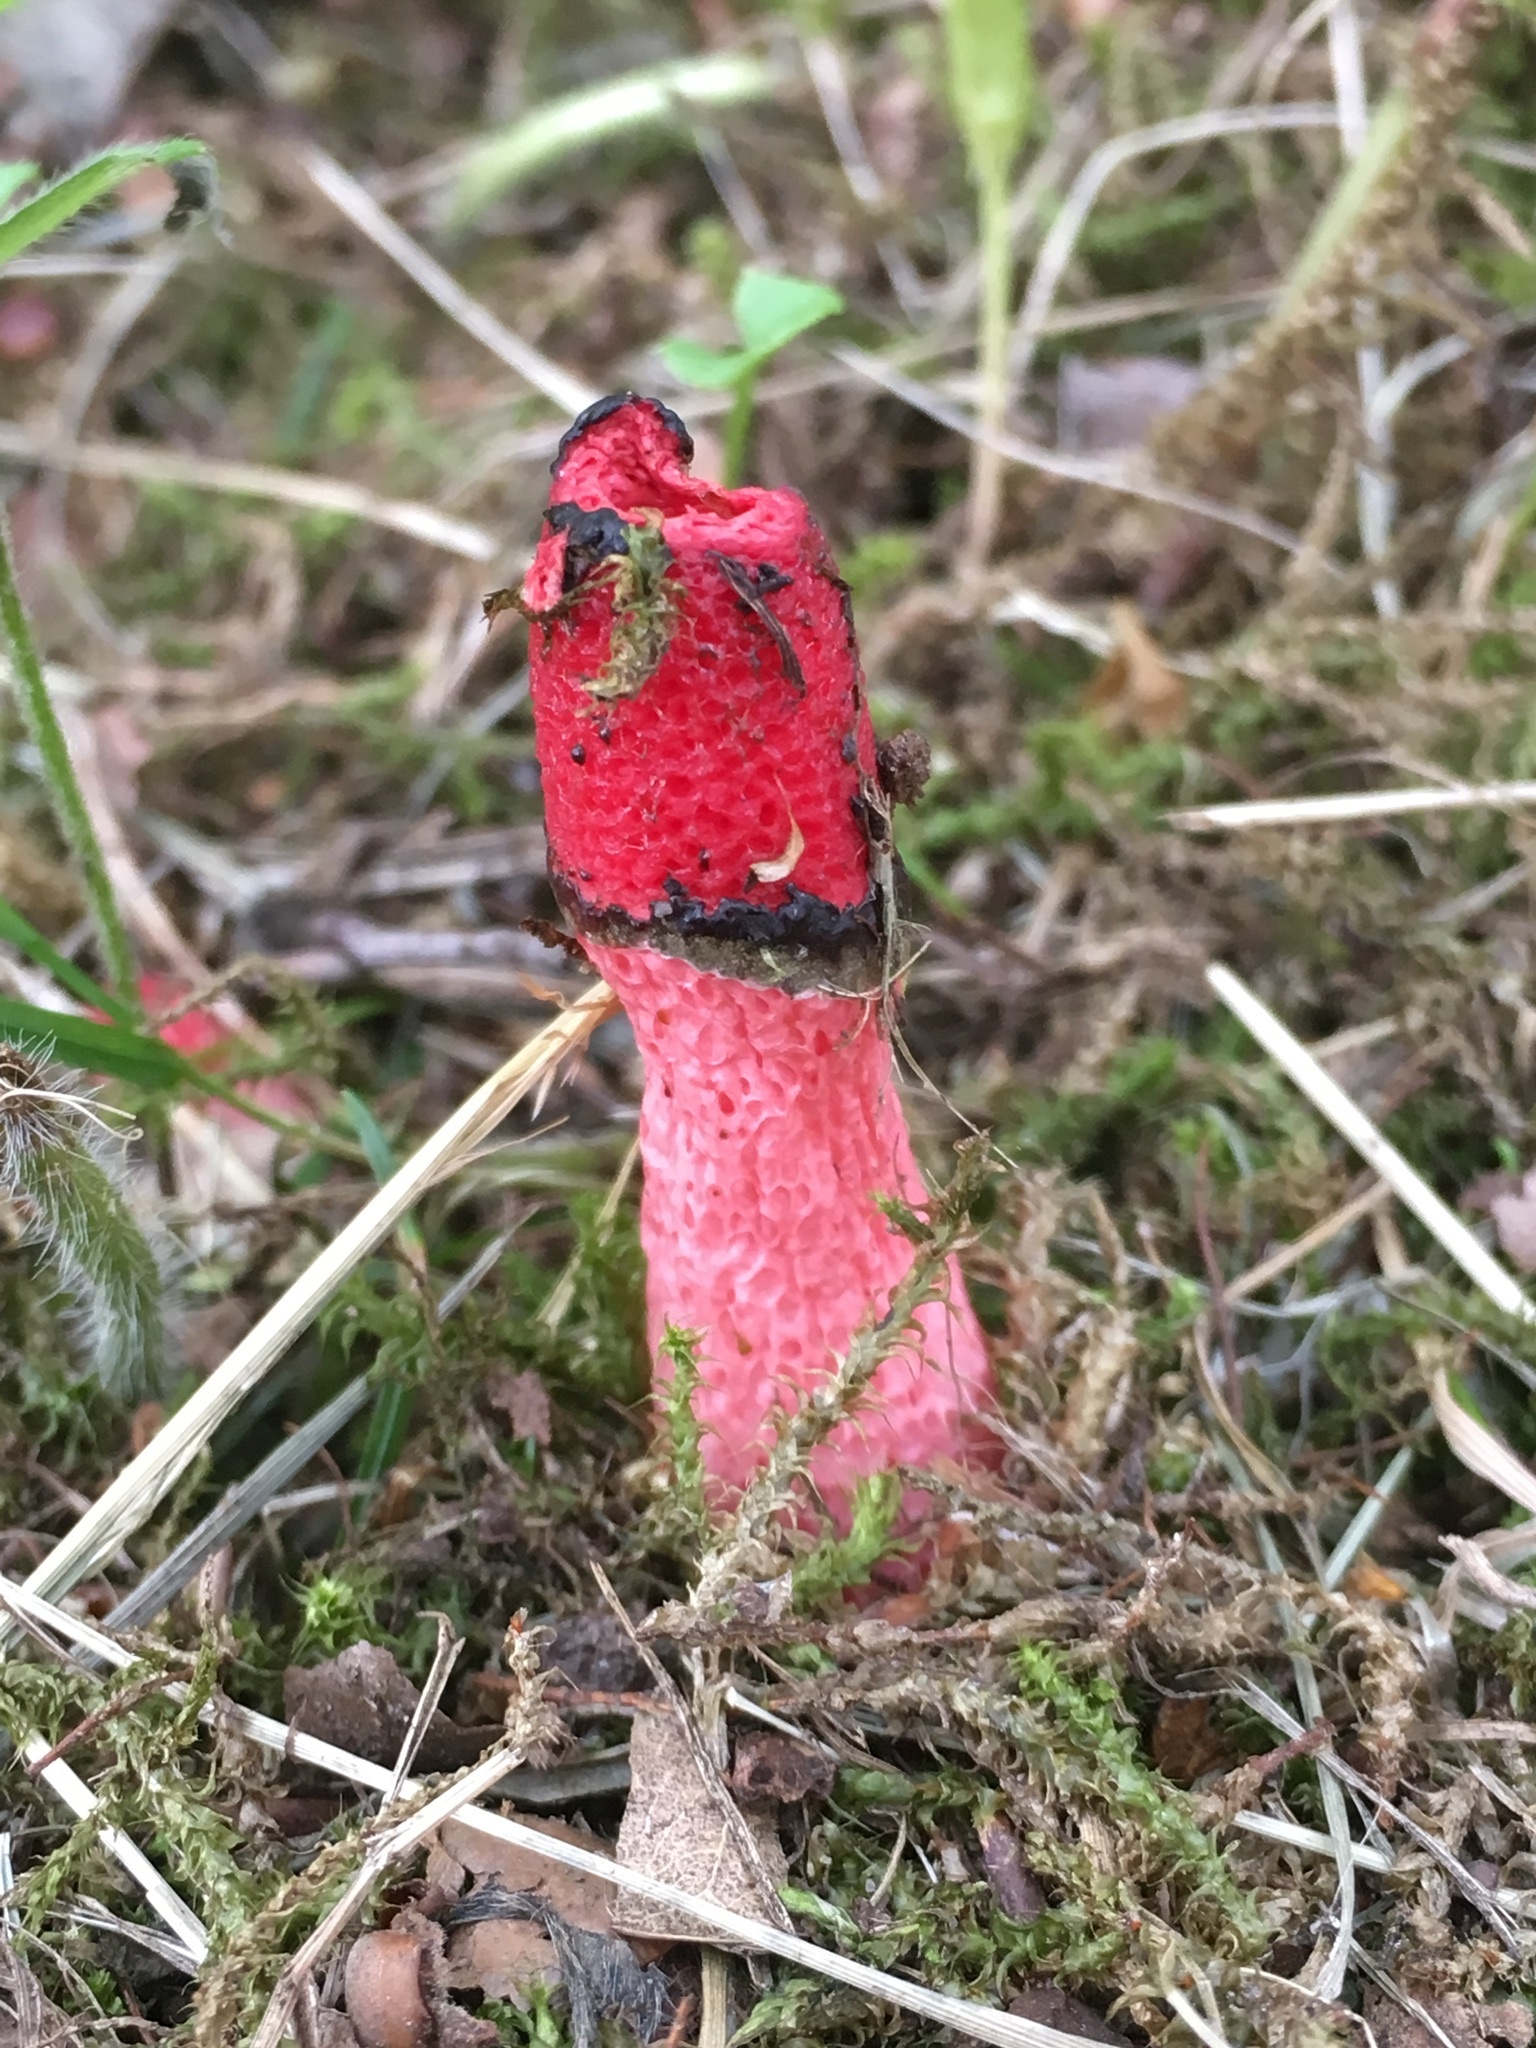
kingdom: Fungi
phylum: Basidiomycota
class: Agaricomycetes
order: Phallales
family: Phallaceae
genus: Mutinus
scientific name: Mutinus ravenelii
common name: Red stinkhorn
